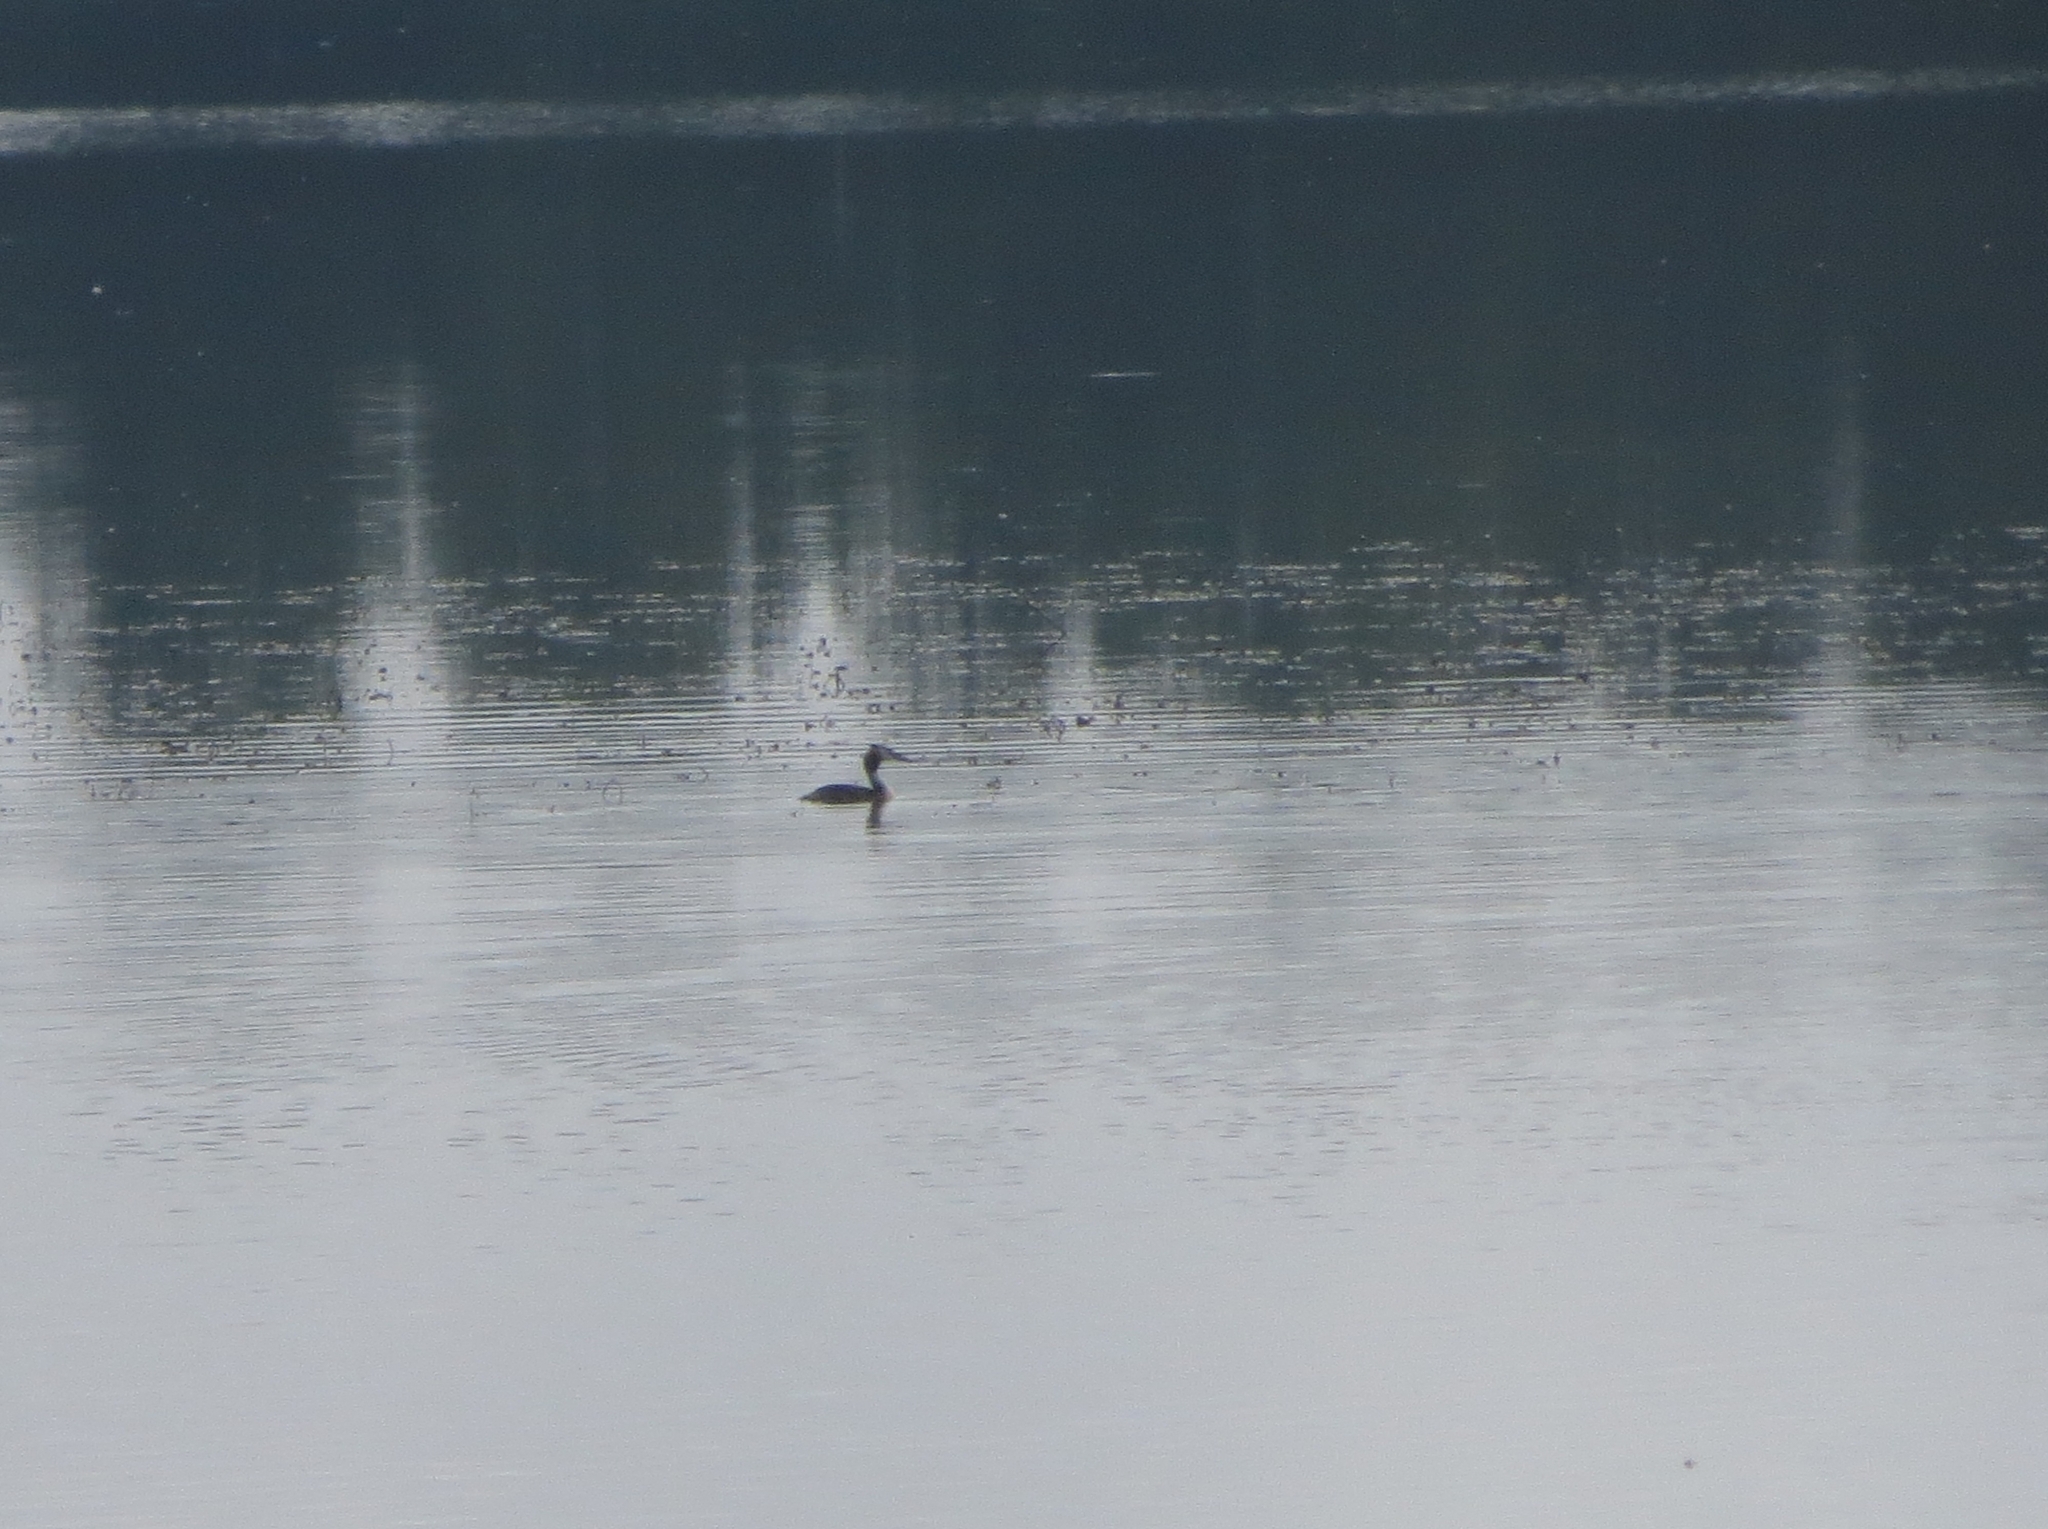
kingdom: Animalia
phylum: Chordata
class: Aves
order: Podicipediformes
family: Podicipedidae
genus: Podiceps
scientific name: Podiceps cristatus
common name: Great crested grebe
